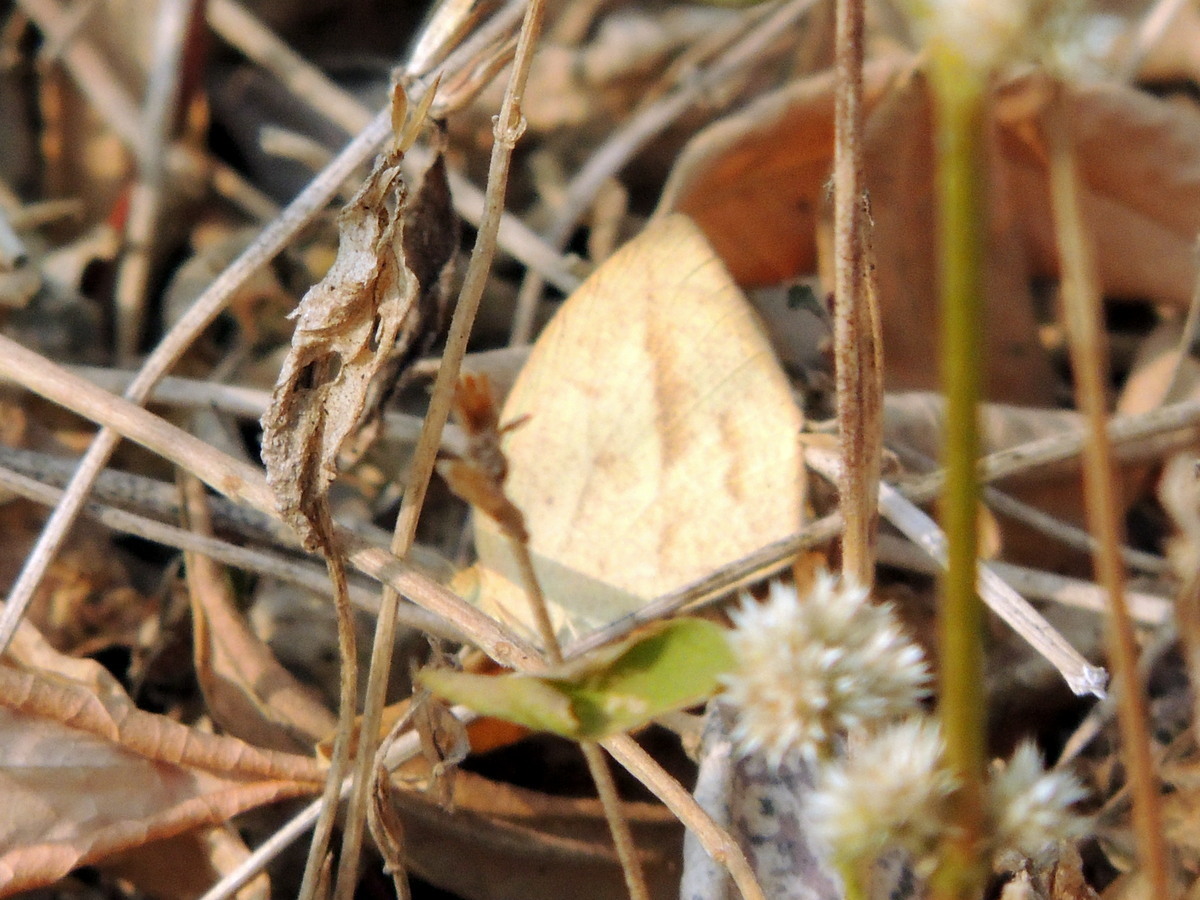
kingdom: Animalia
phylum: Arthropoda
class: Insecta
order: Lepidoptera
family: Pieridae
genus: Eurema
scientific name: Eurema laeta
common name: Spotless grass yellow
